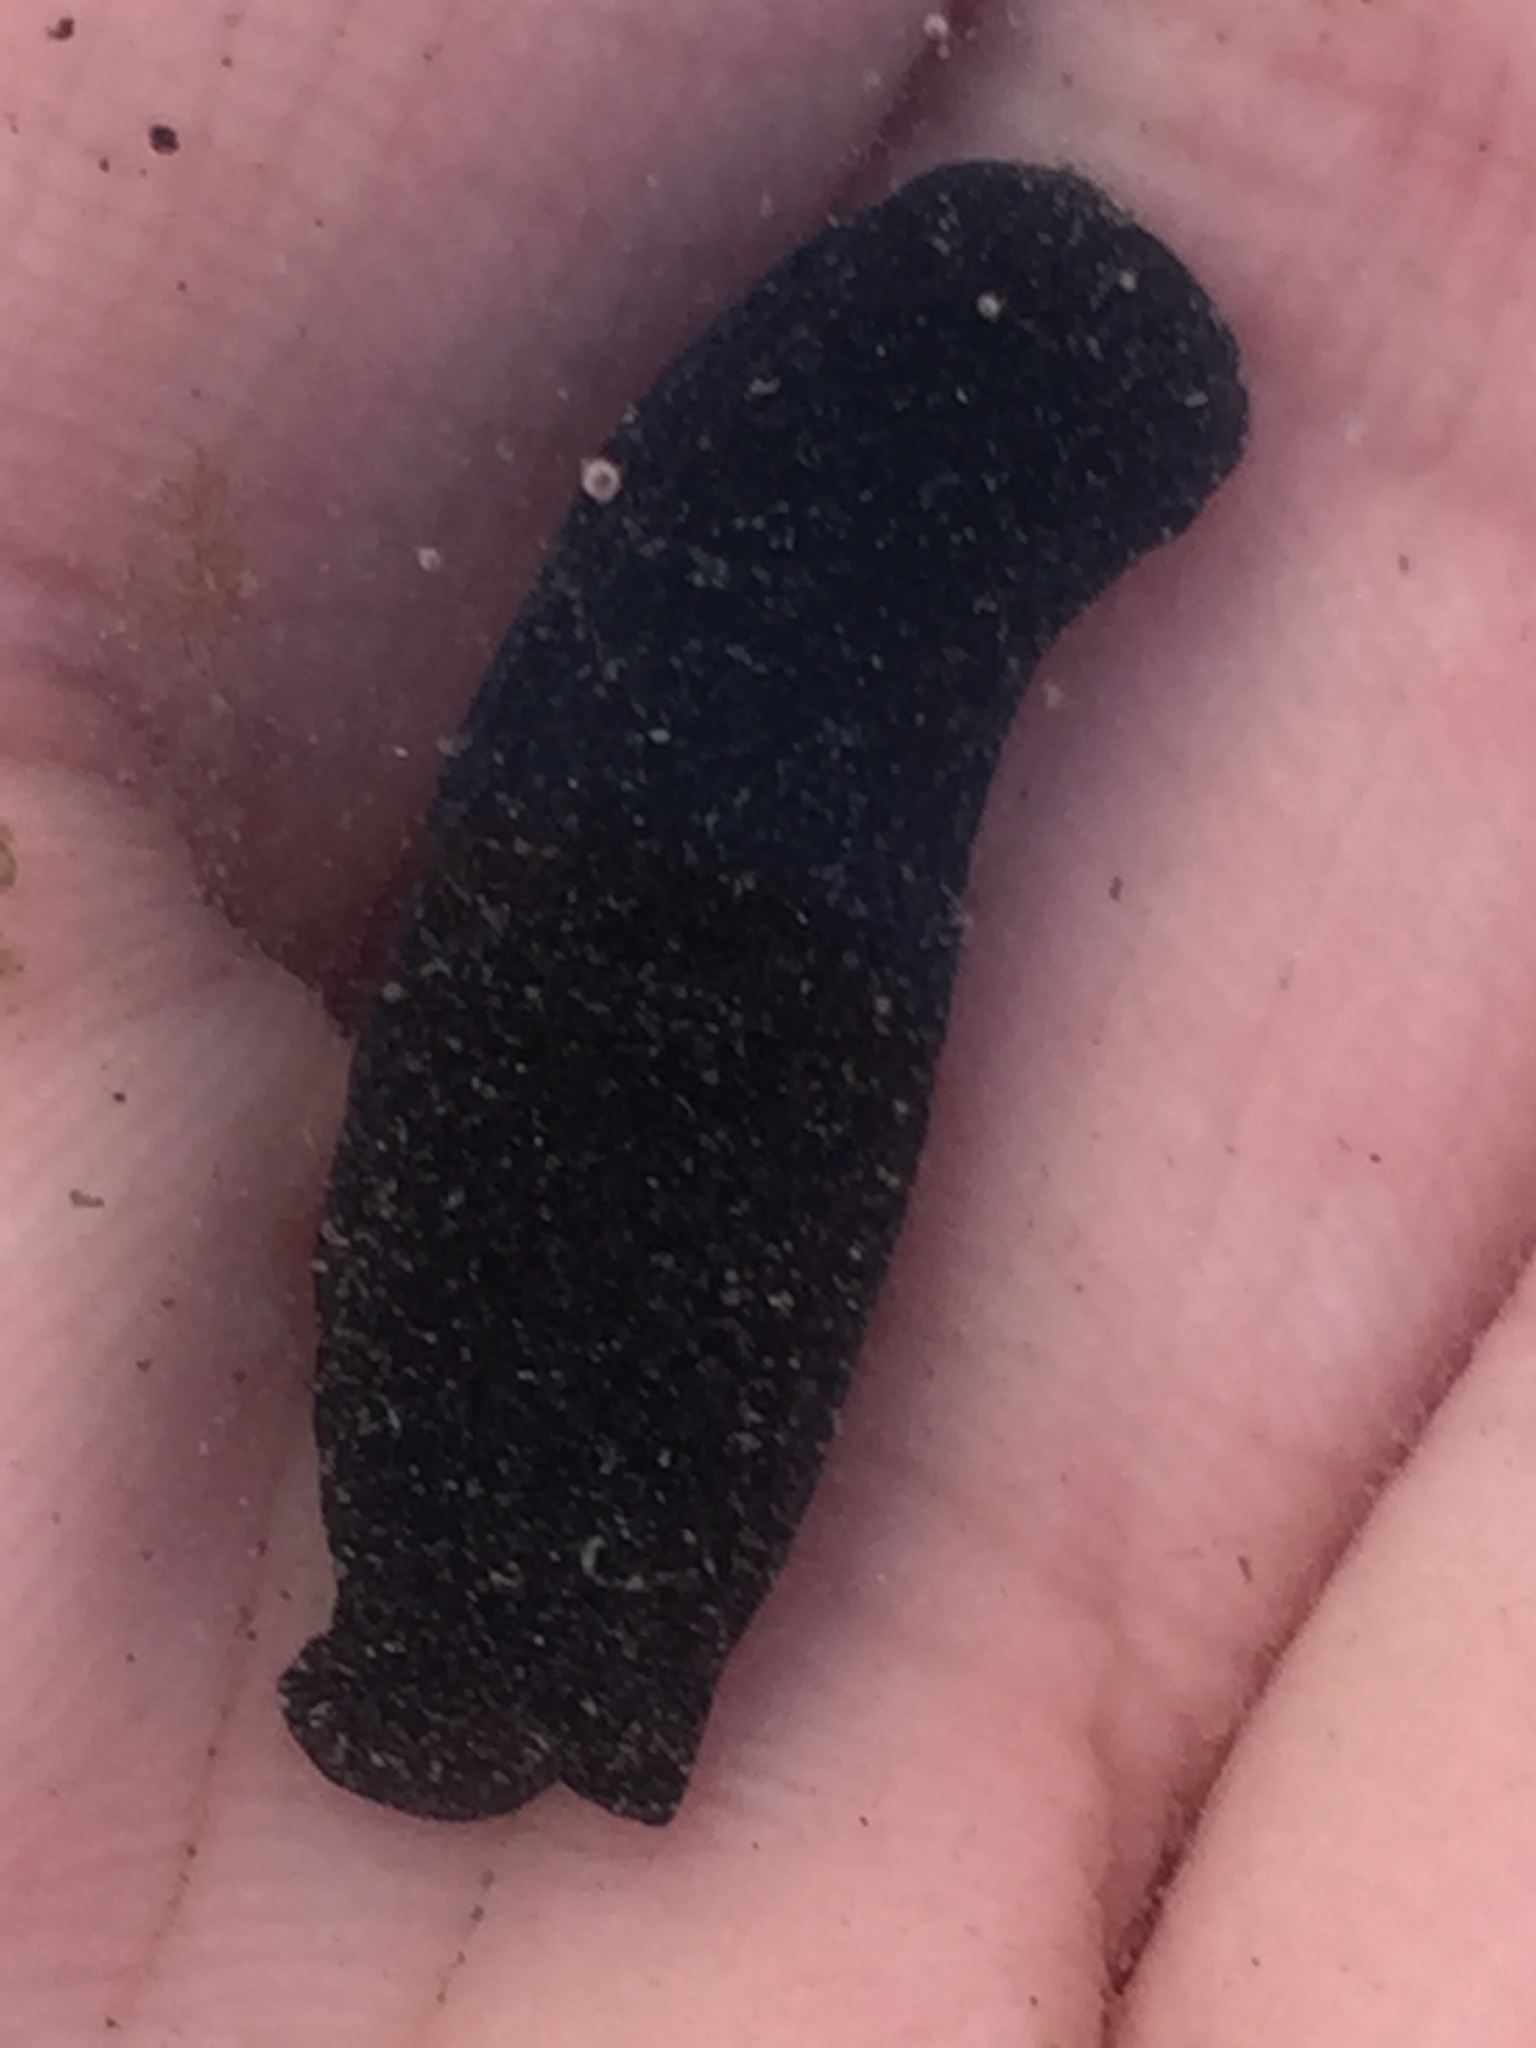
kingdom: Animalia
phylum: Mollusca
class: Gastropoda
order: Cephalaspidea
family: Aglajidae
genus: Melanochlamys
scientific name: Melanochlamys cylindrica
